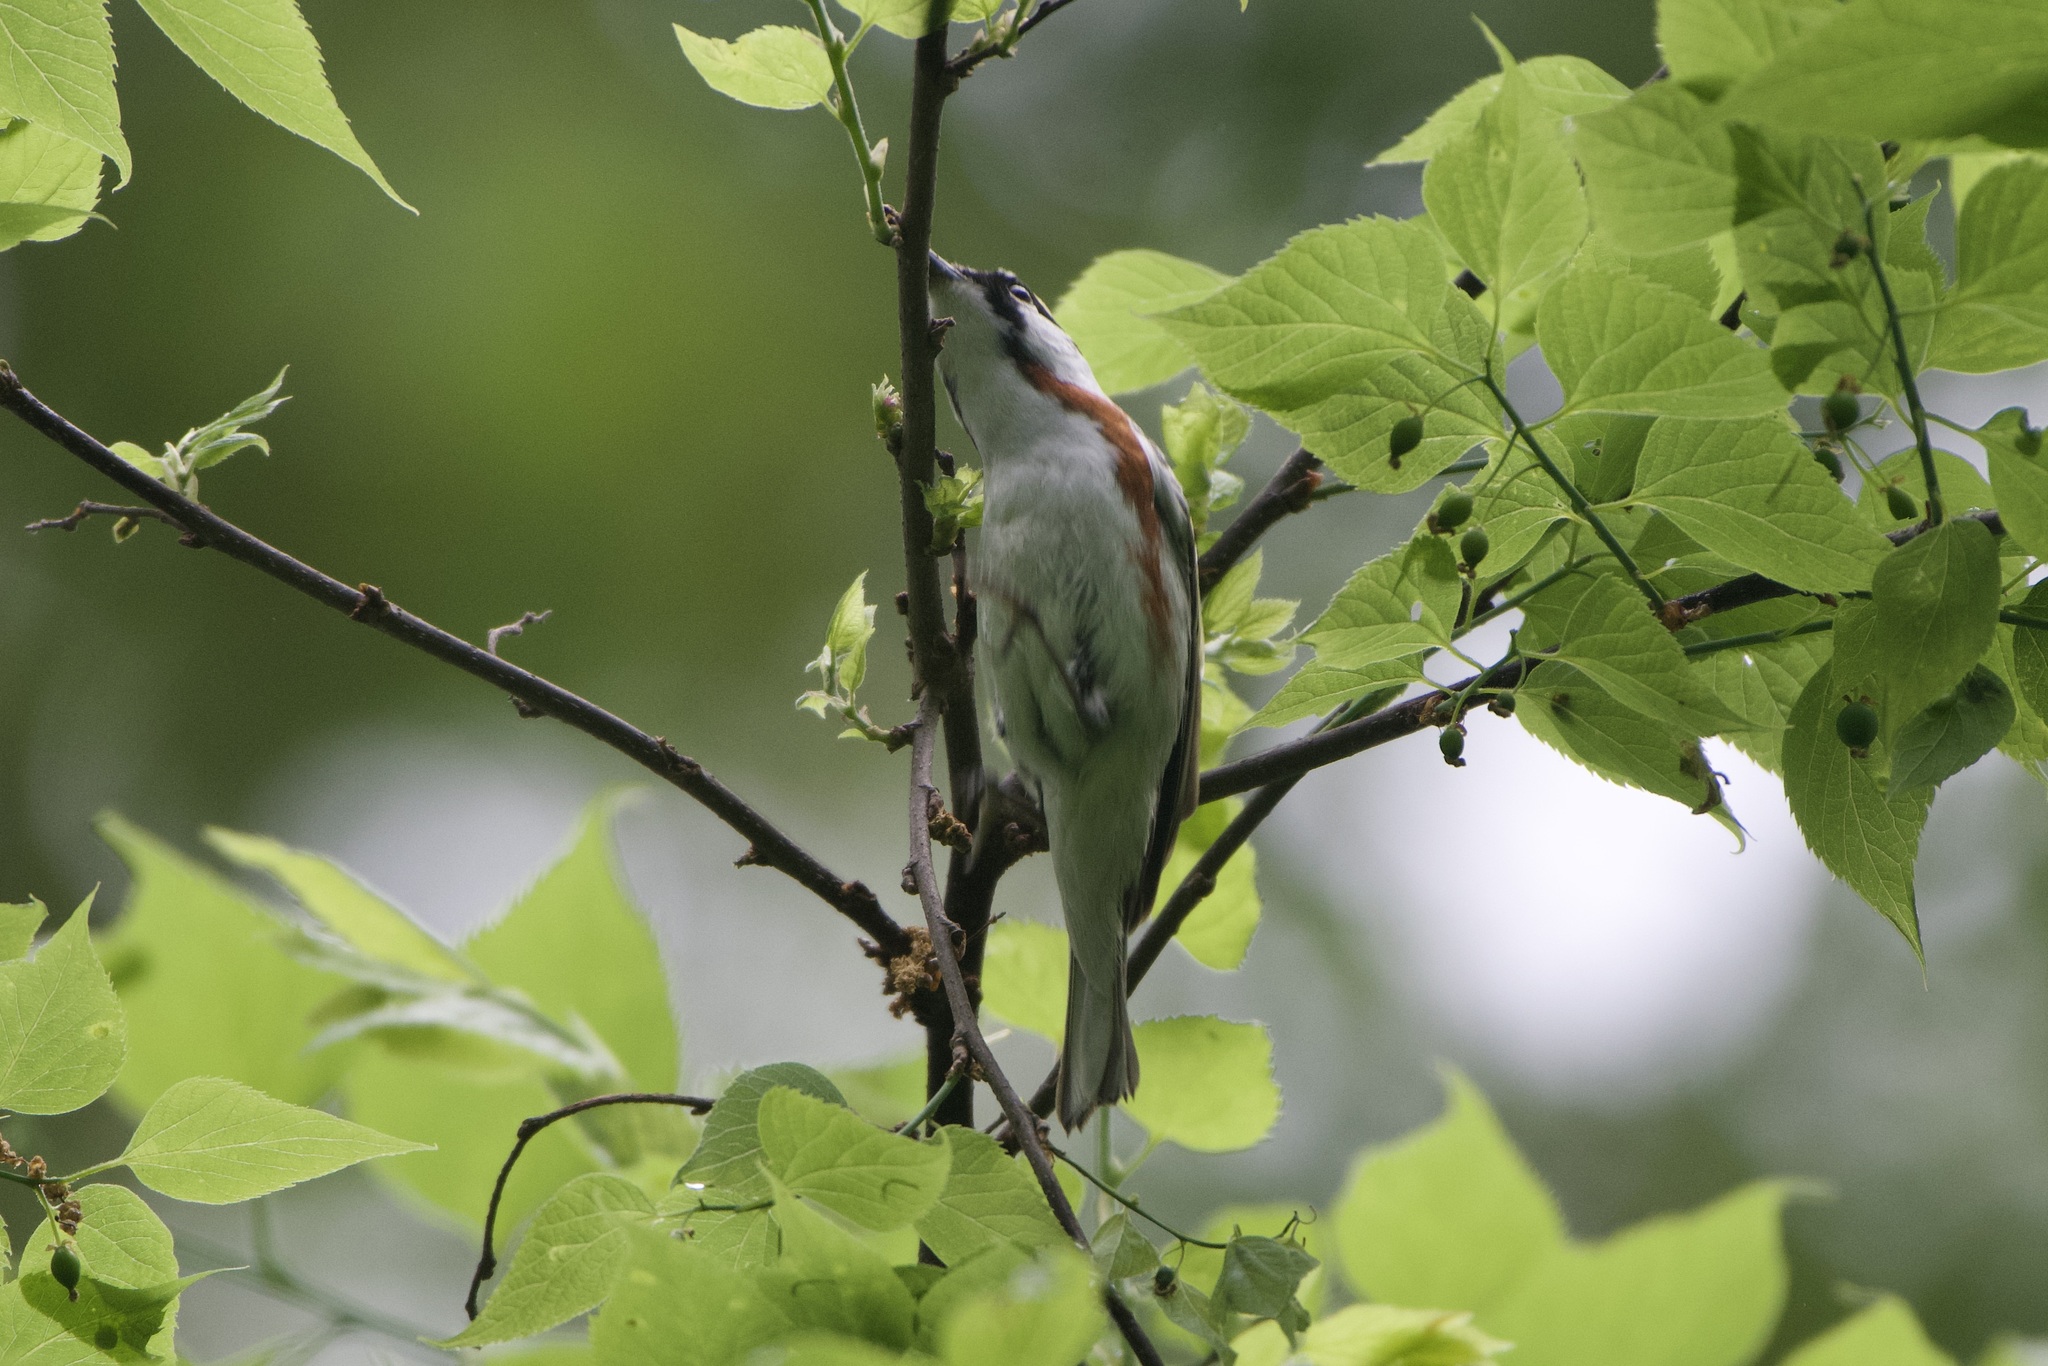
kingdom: Animalia
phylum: Chordata
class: Aves
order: Passeriformes
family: Parulidae
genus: Setophaga
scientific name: Setophaga pensylvanica
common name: Chestnut-sided warbler
